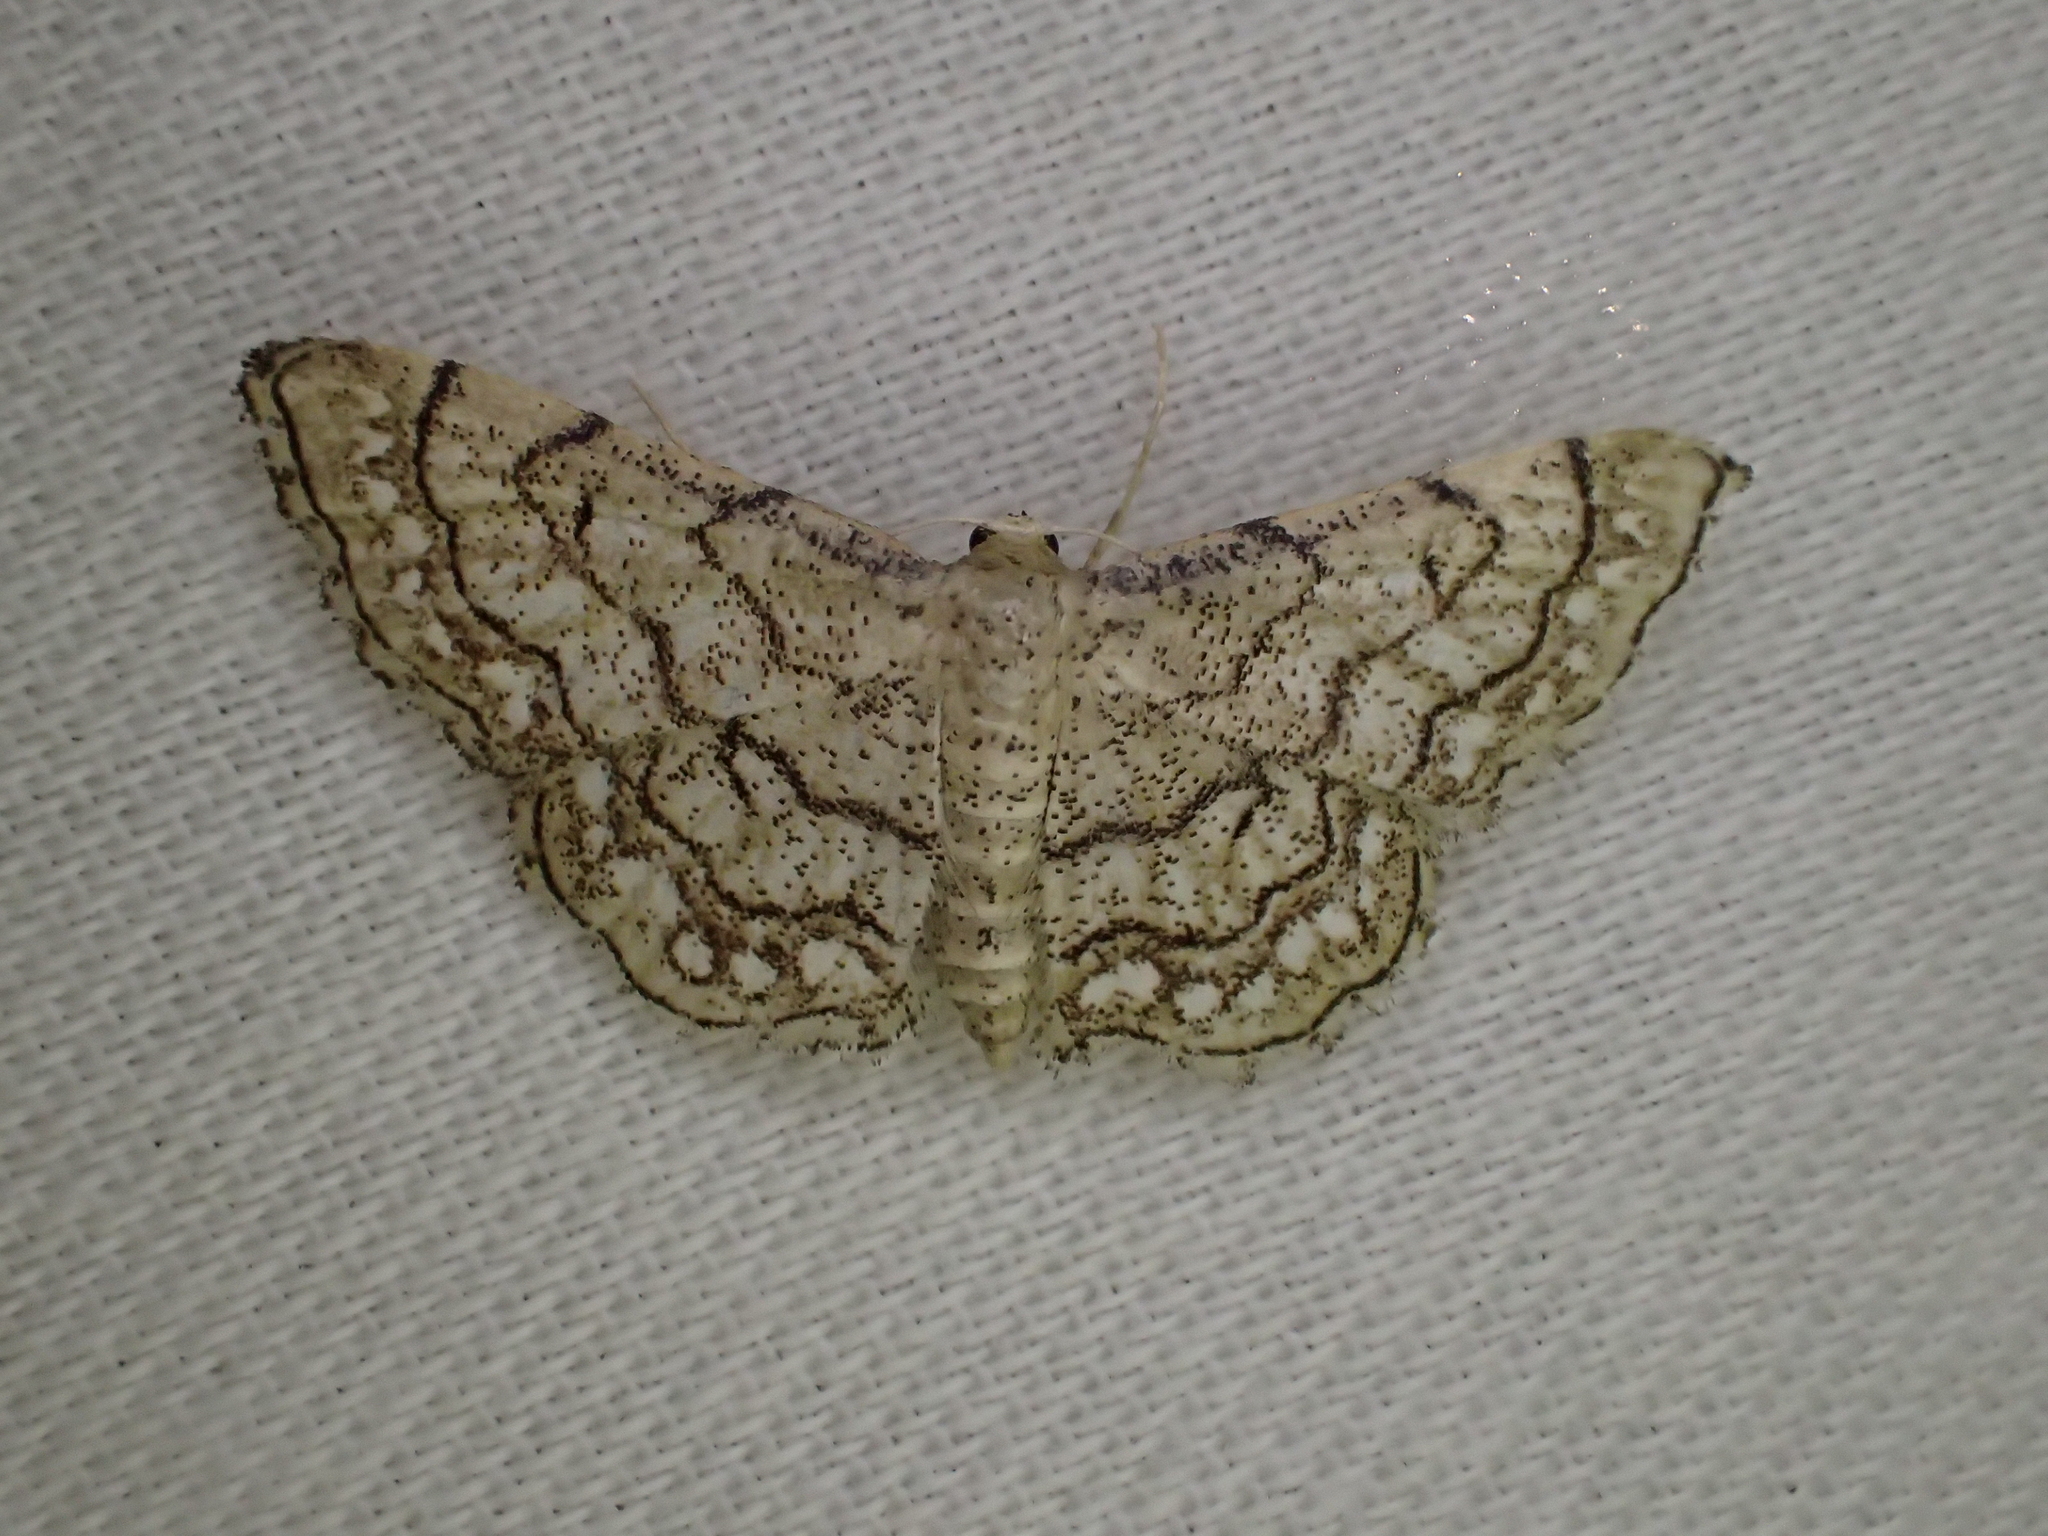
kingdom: Animalia
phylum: Arthropoda
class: Insecta
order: Lepidoptera
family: Geometridae
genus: Idaea
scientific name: Idaea moniliata
